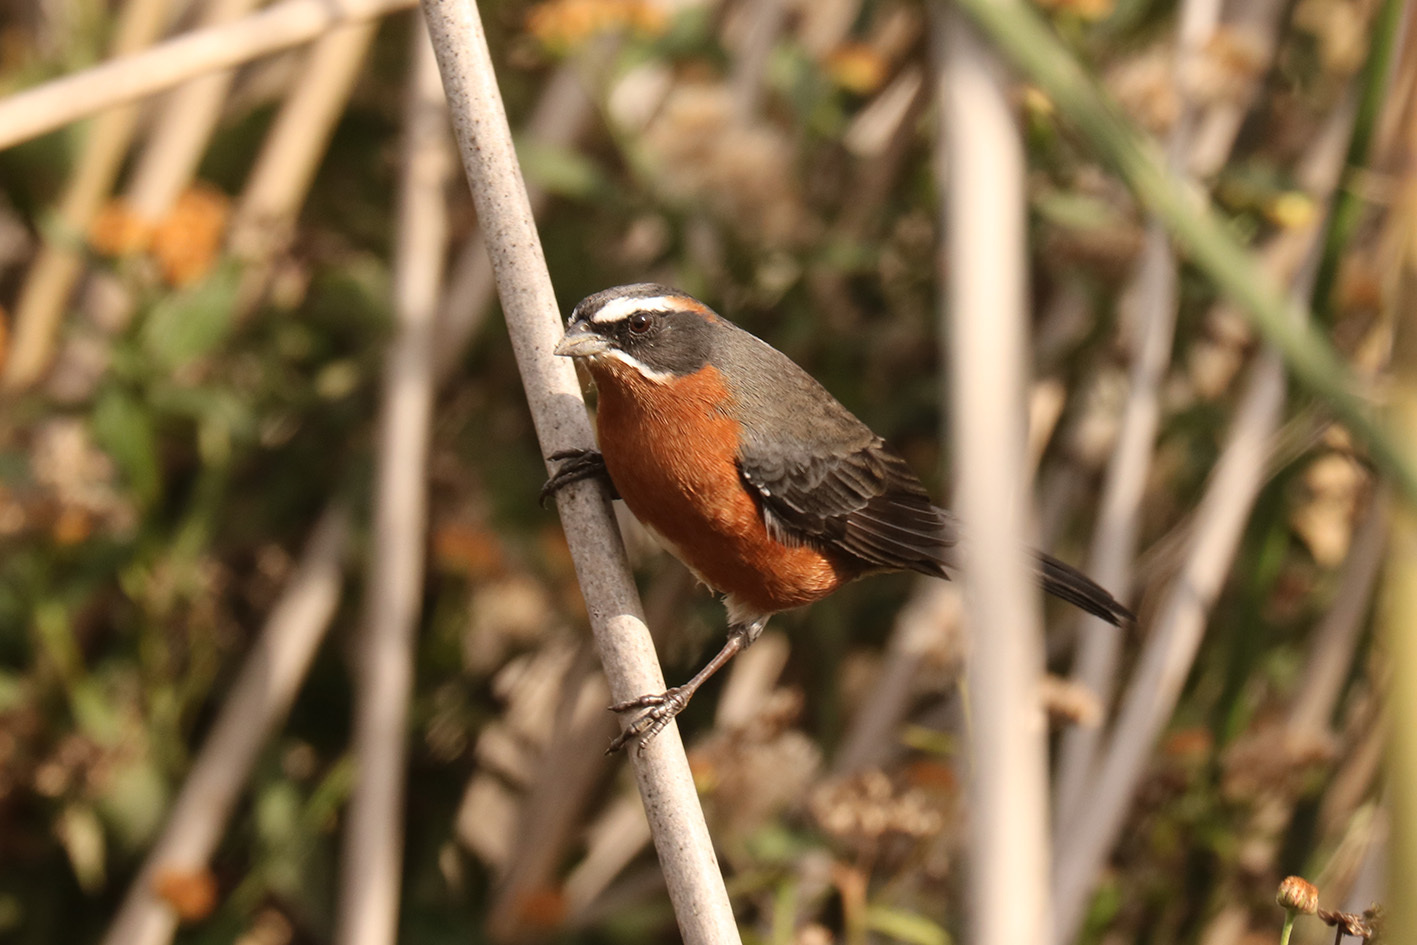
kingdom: Animalia
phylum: Chordata
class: Aves
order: Passeriformes
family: Thraupidae
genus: Poospiza
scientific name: Poospiza nigrorufa
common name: Black-and-rufous warbling finch
